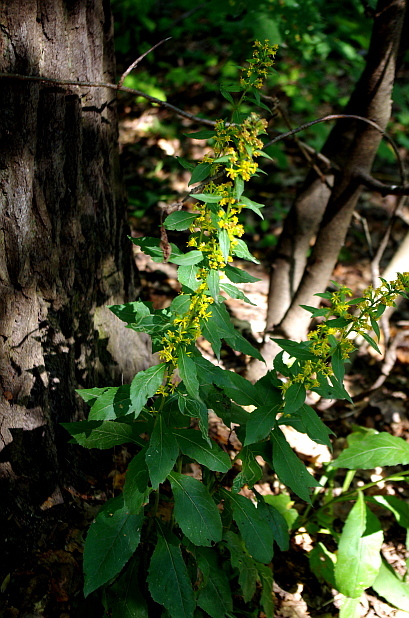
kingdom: Plantae
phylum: Tracheophyta
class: Magnoliopsida
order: Asterales
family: Asteraceae
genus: Solidago
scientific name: Solidago virgaurea
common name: Goldenrod
